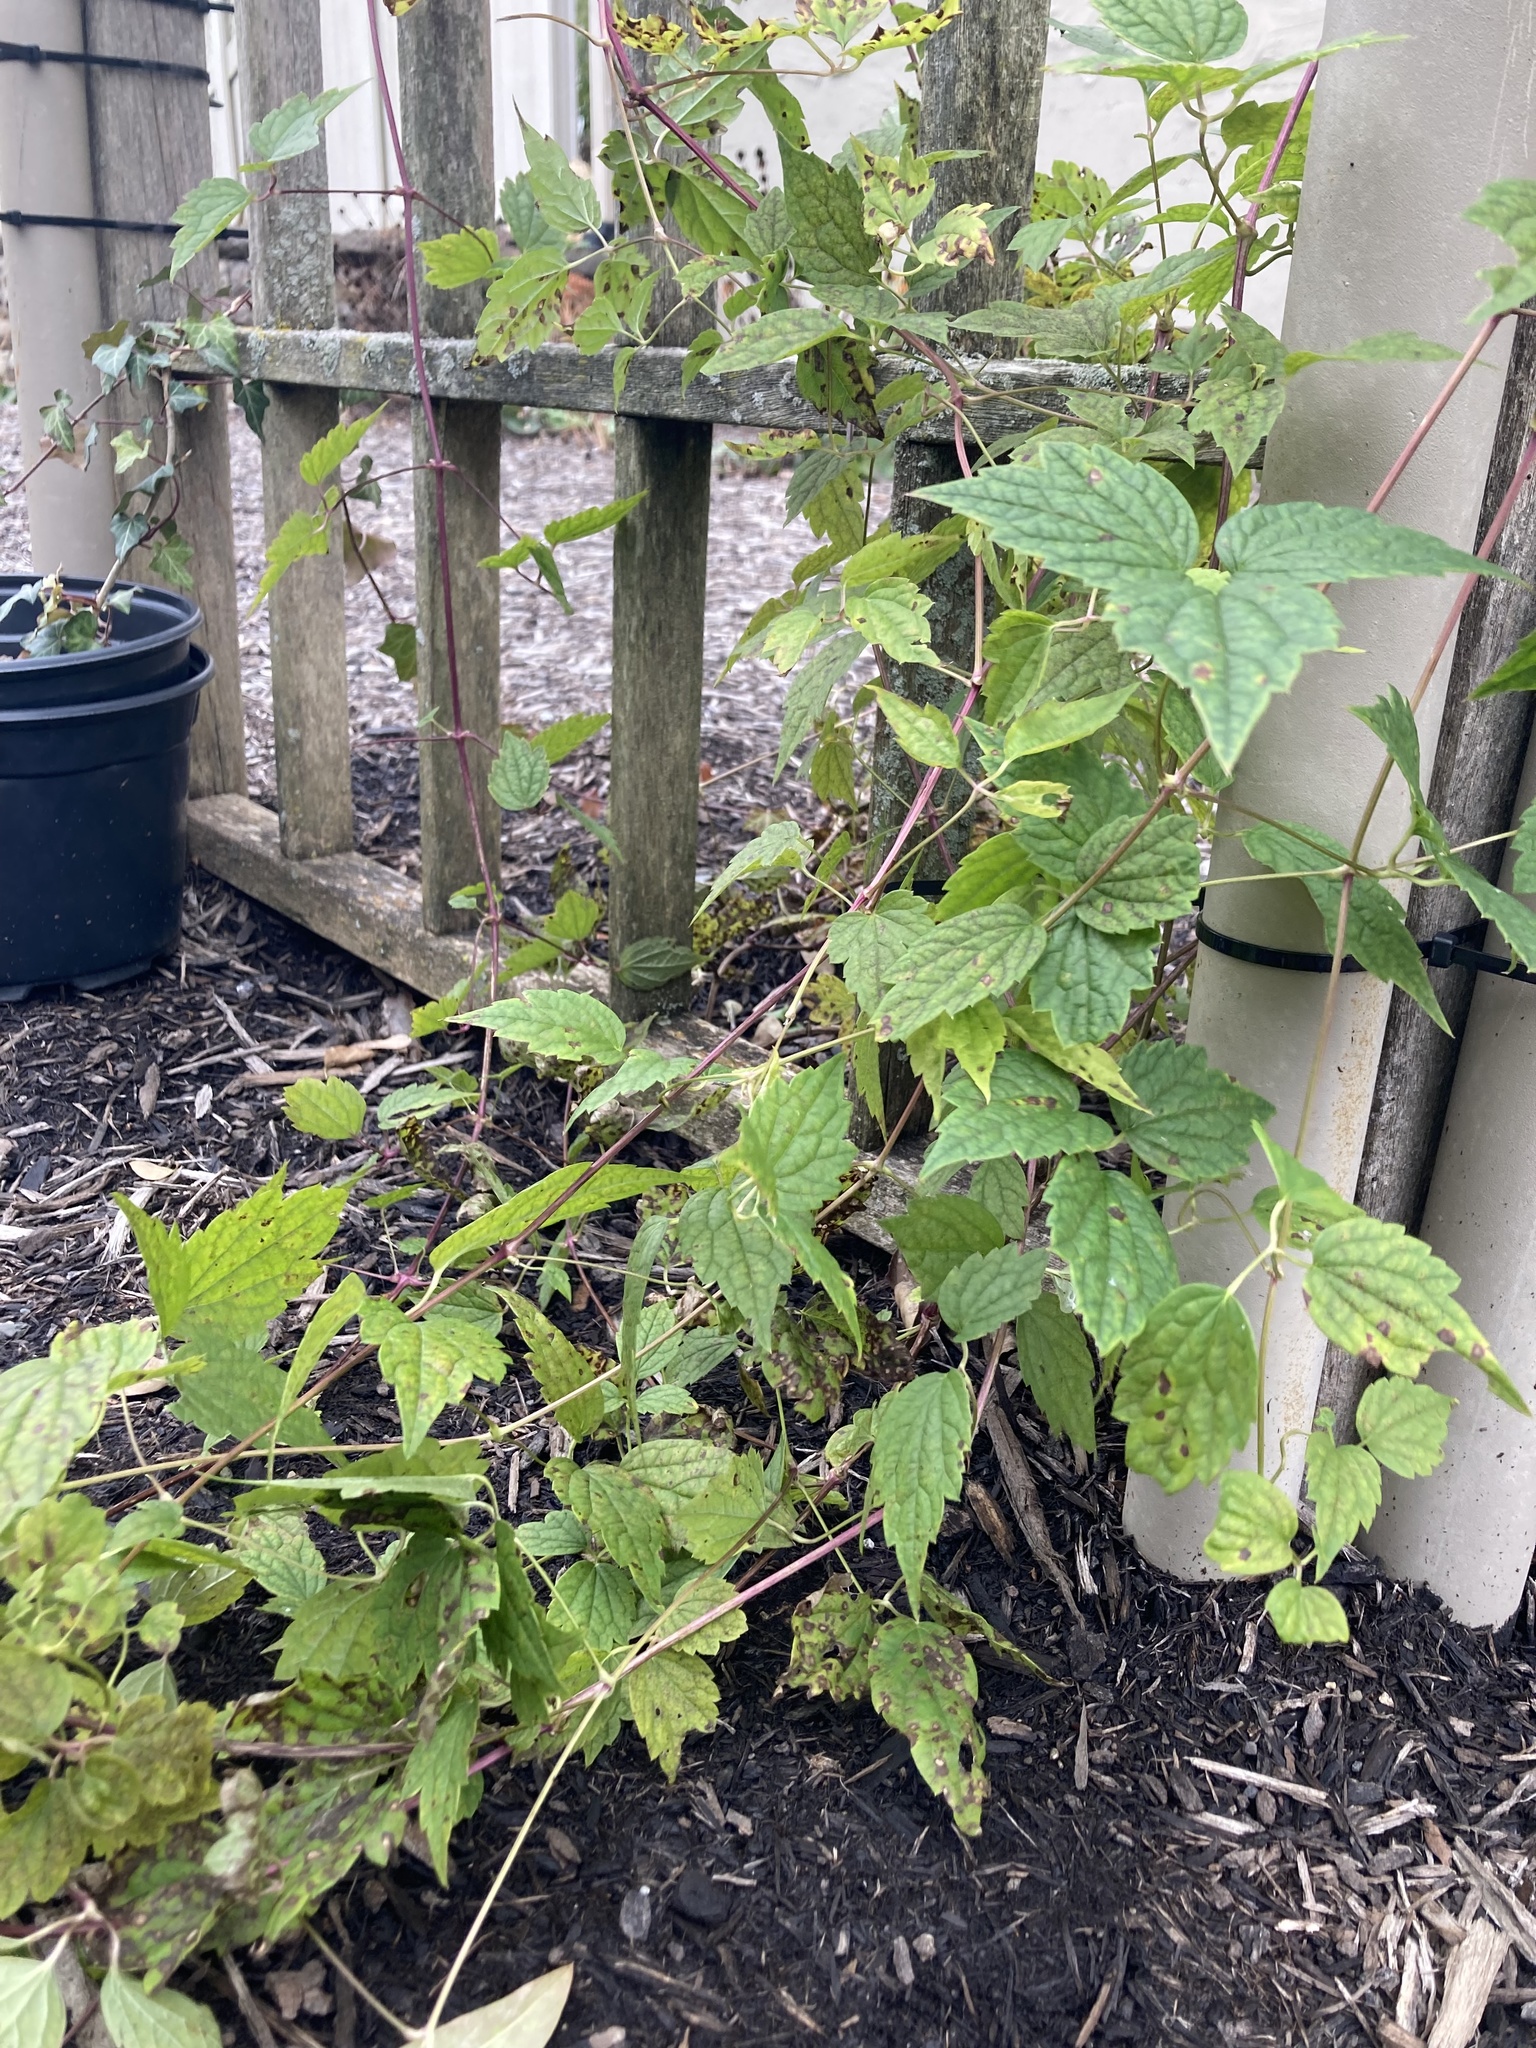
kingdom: Plantae
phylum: Tracheophyta
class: Magnoliopsida
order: Ranunculales
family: Ranunculaceae
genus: Clematis
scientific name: Clematis virginiana
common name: Virgin's-bower
